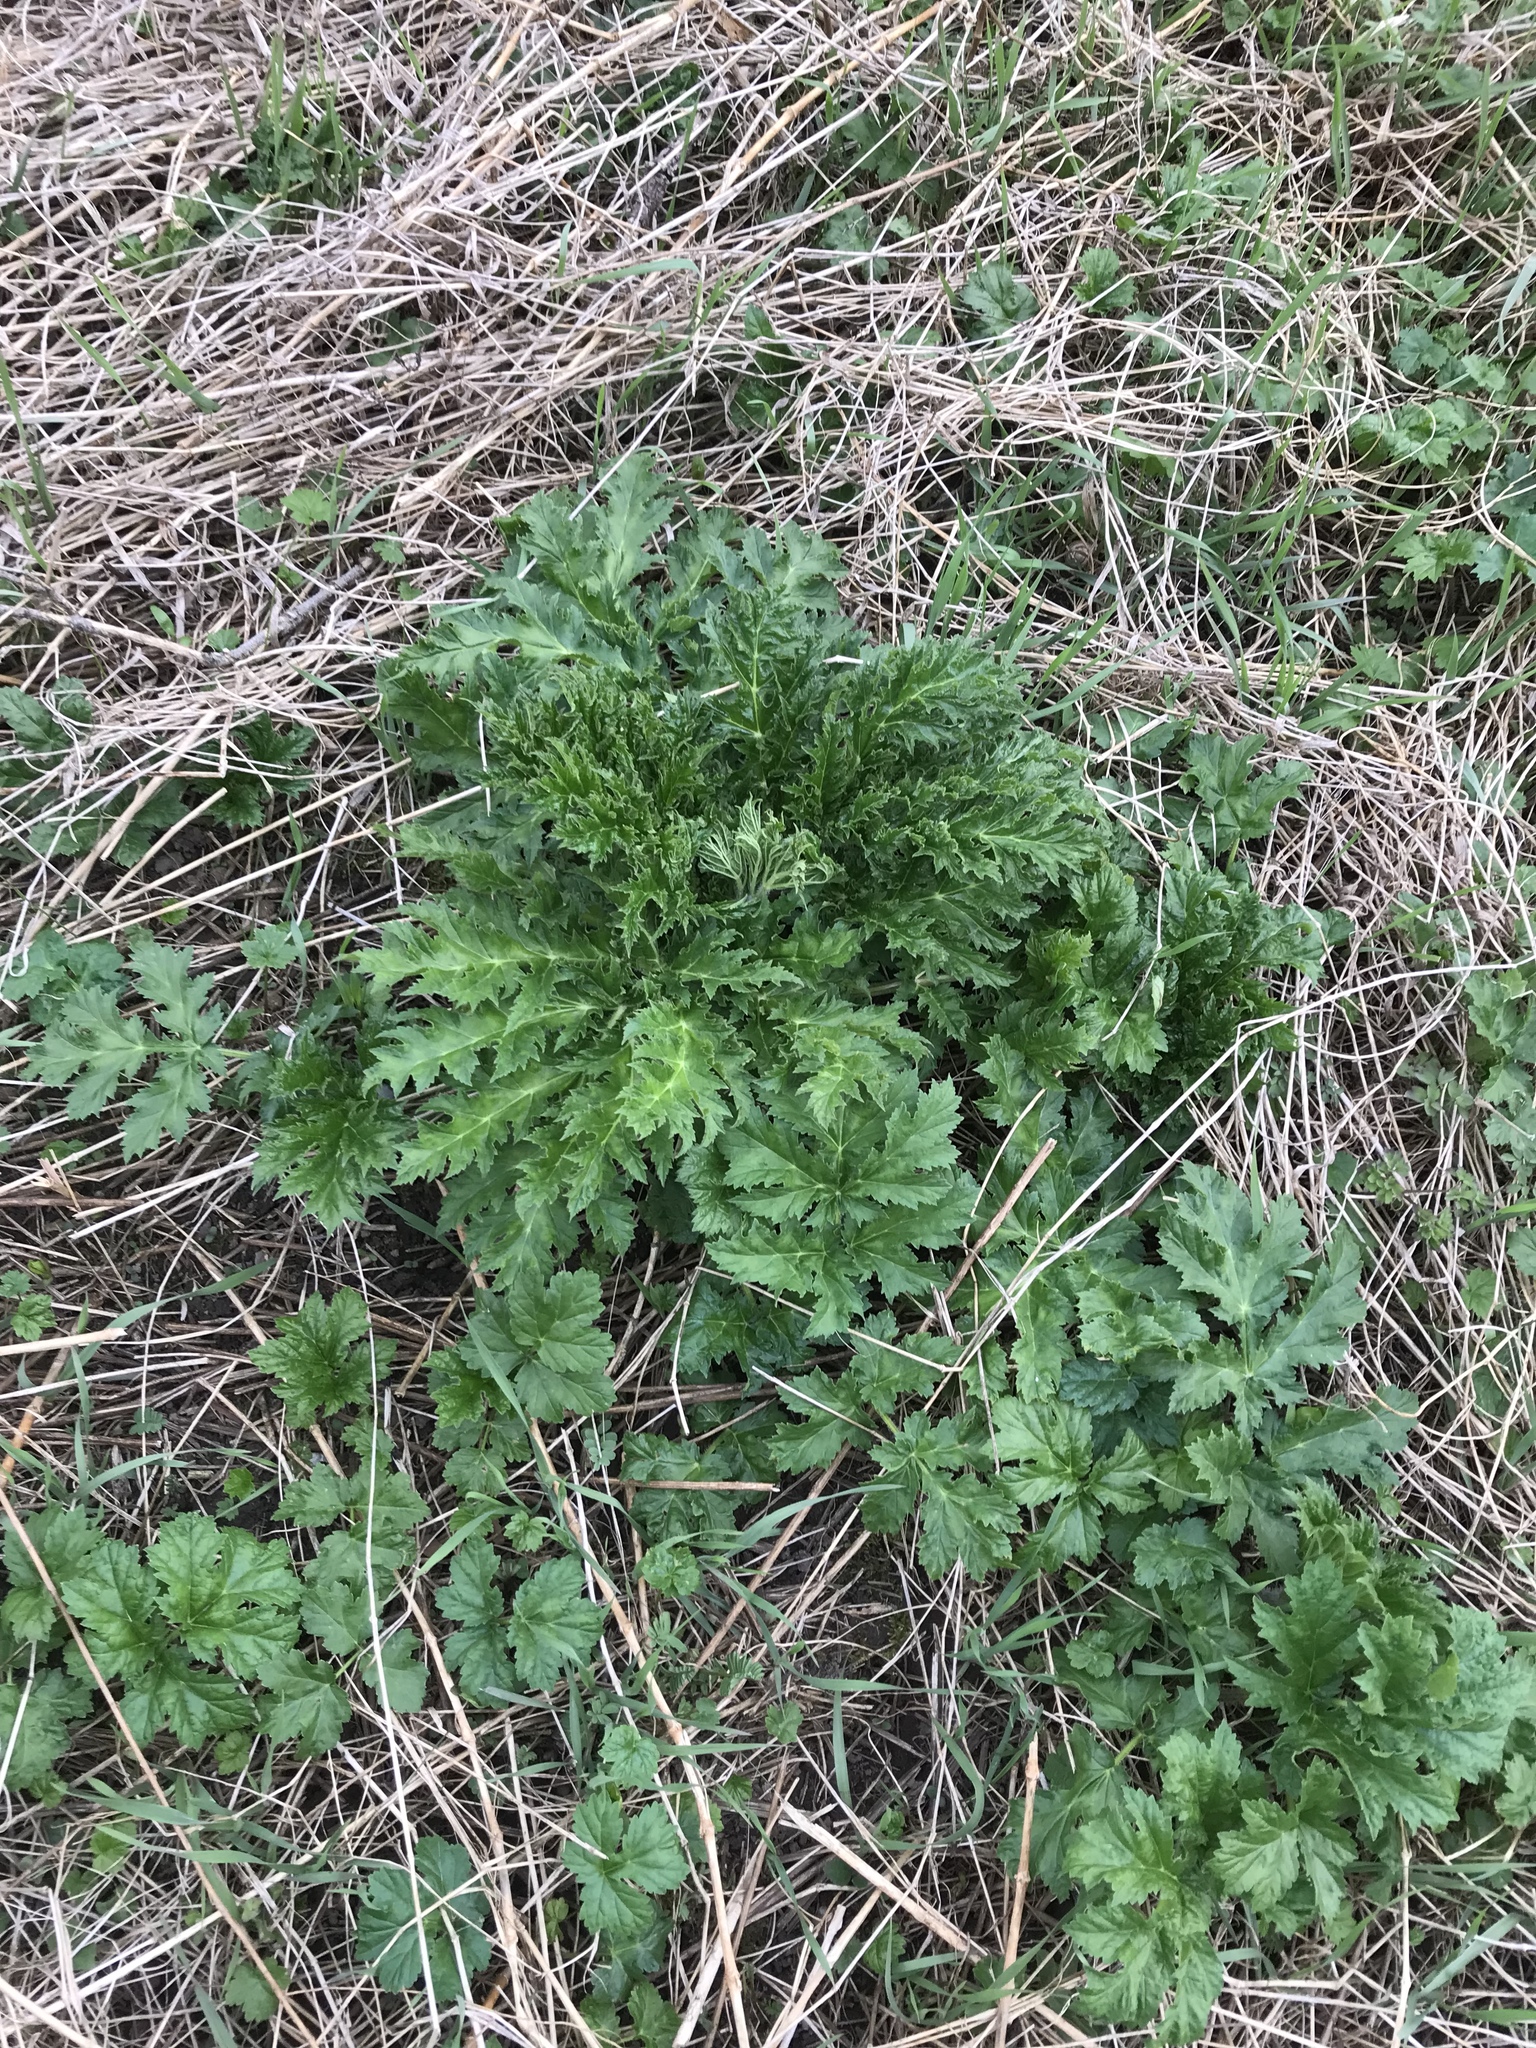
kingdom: Plantae
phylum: Tracheophyta
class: Magnoliopsida
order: Apiales
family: Apiaceae
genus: Heracleum
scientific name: Heracleum mantegazzianum
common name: Giant hogweed
